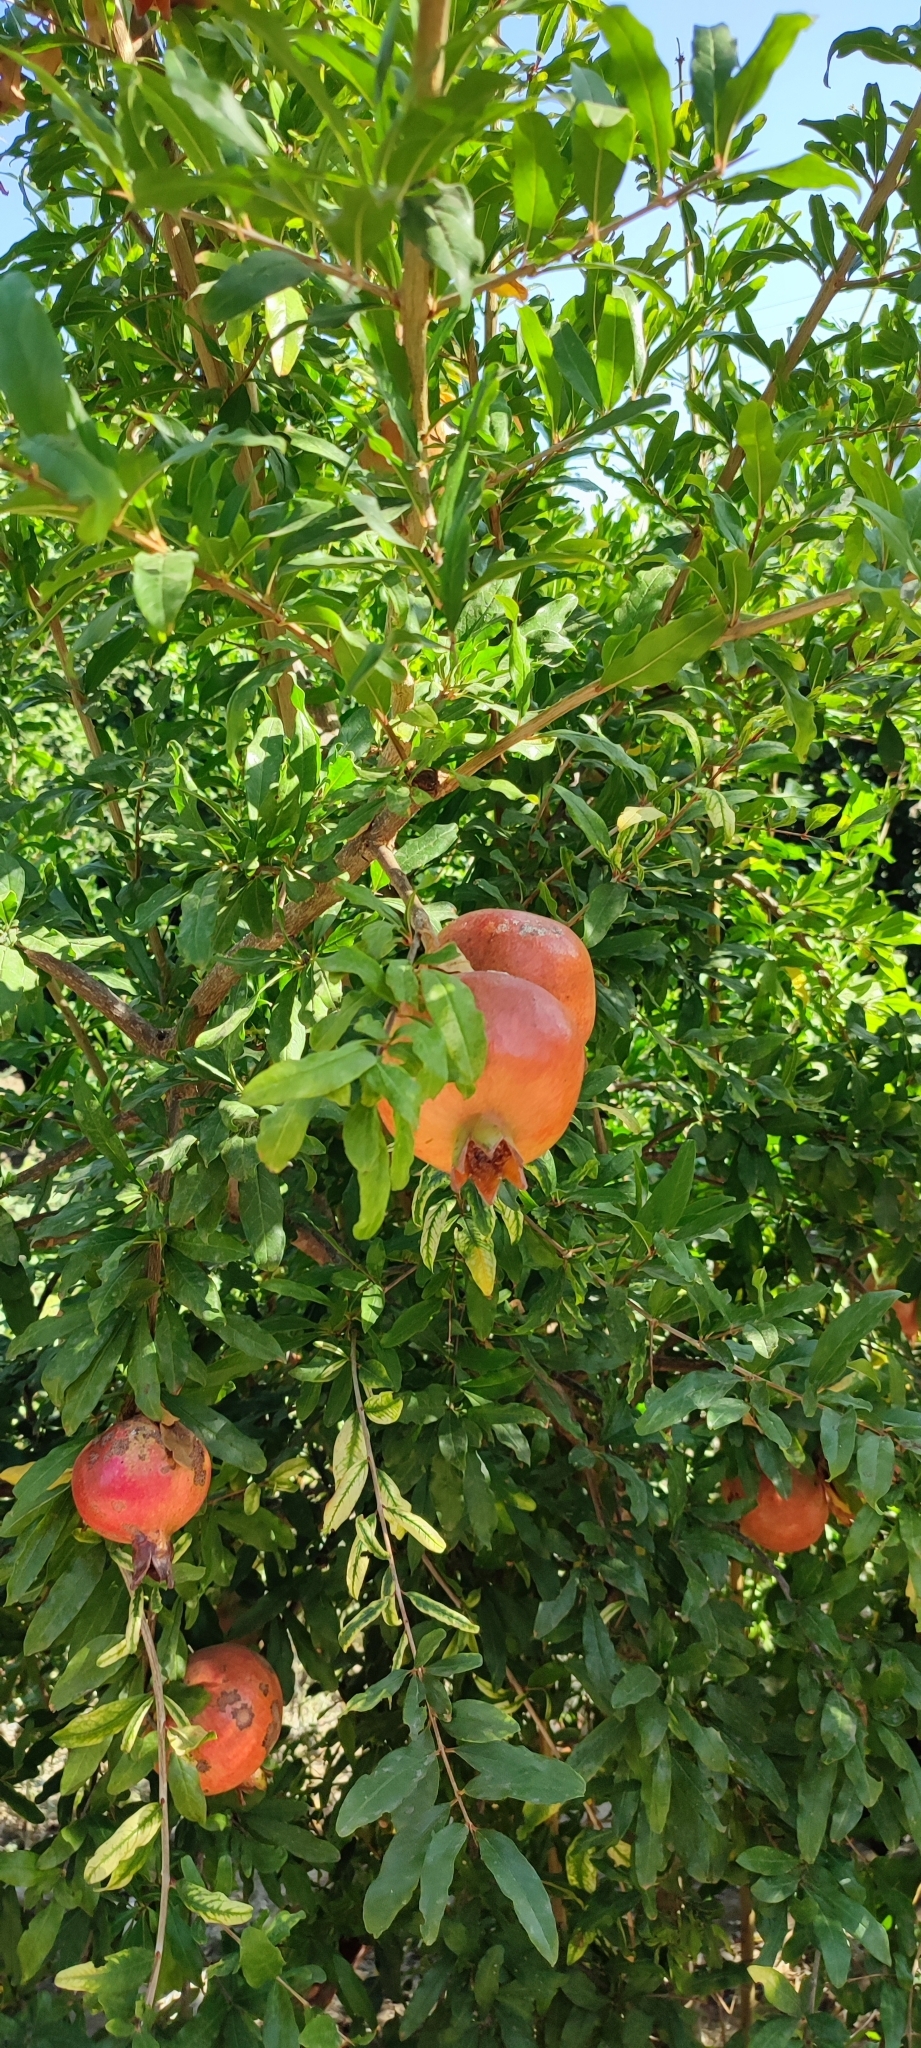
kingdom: Plantae
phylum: Tracheophyta
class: Magnoliopsida
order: Myrtales
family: Lythraceae
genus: Punica
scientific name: Punica granatum
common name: Pomegranate
